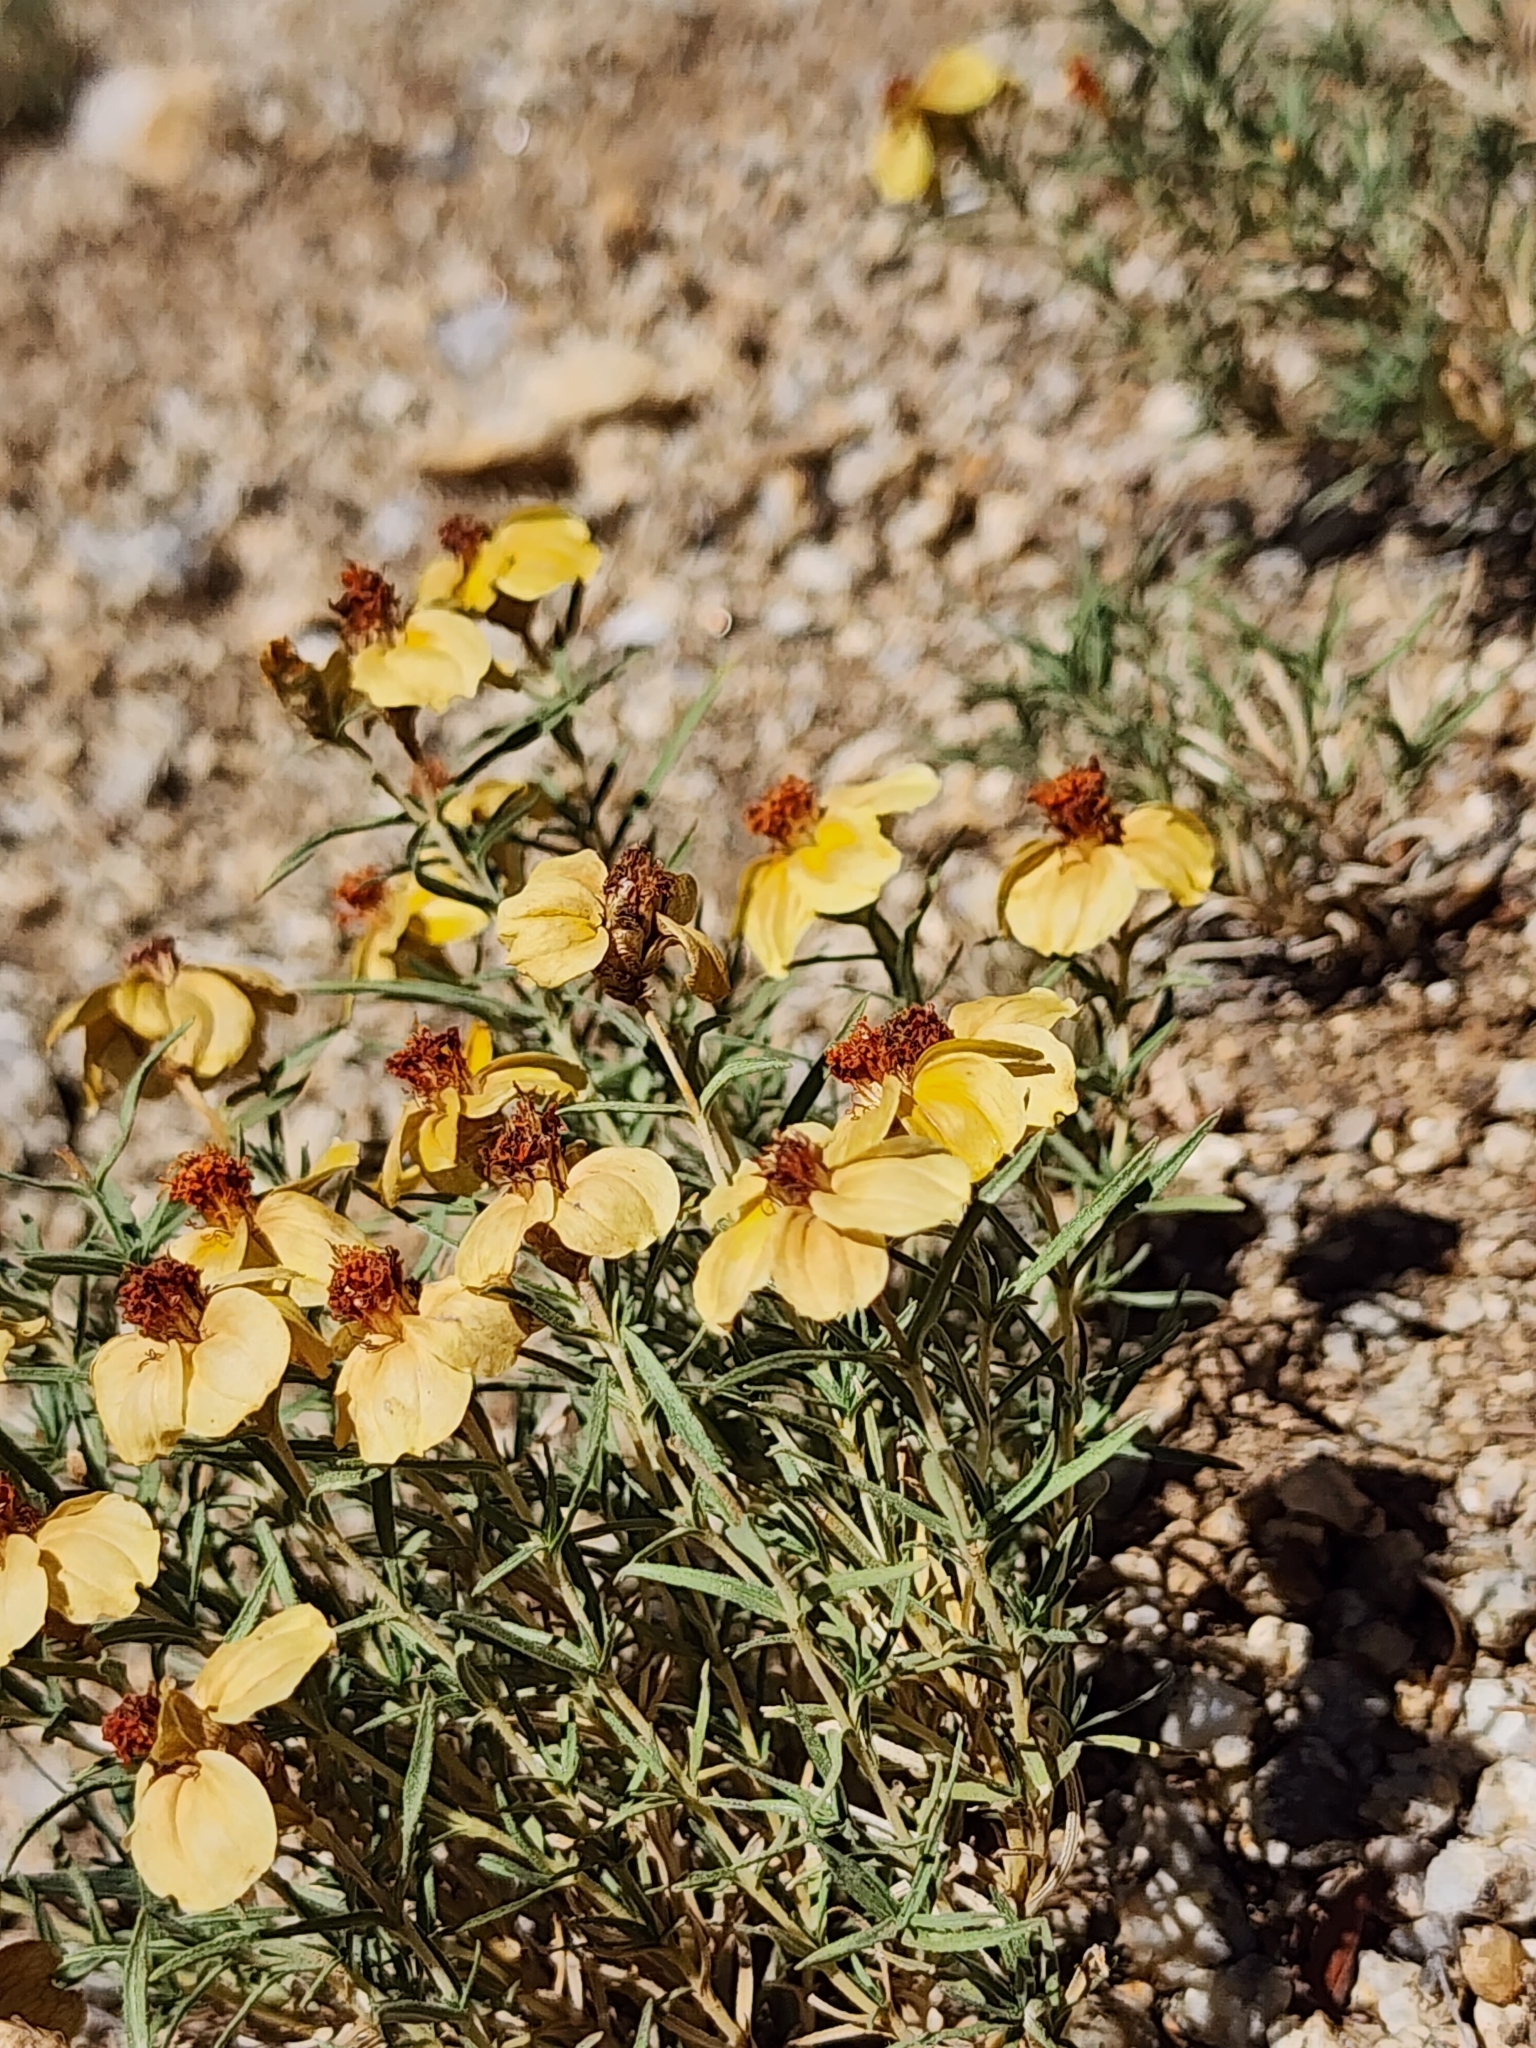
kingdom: Plantae
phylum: Tracheophyta
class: Magnoliopsida
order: Asterales
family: Asteraceae
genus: Zinnia
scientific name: Zinnia grandiflora
